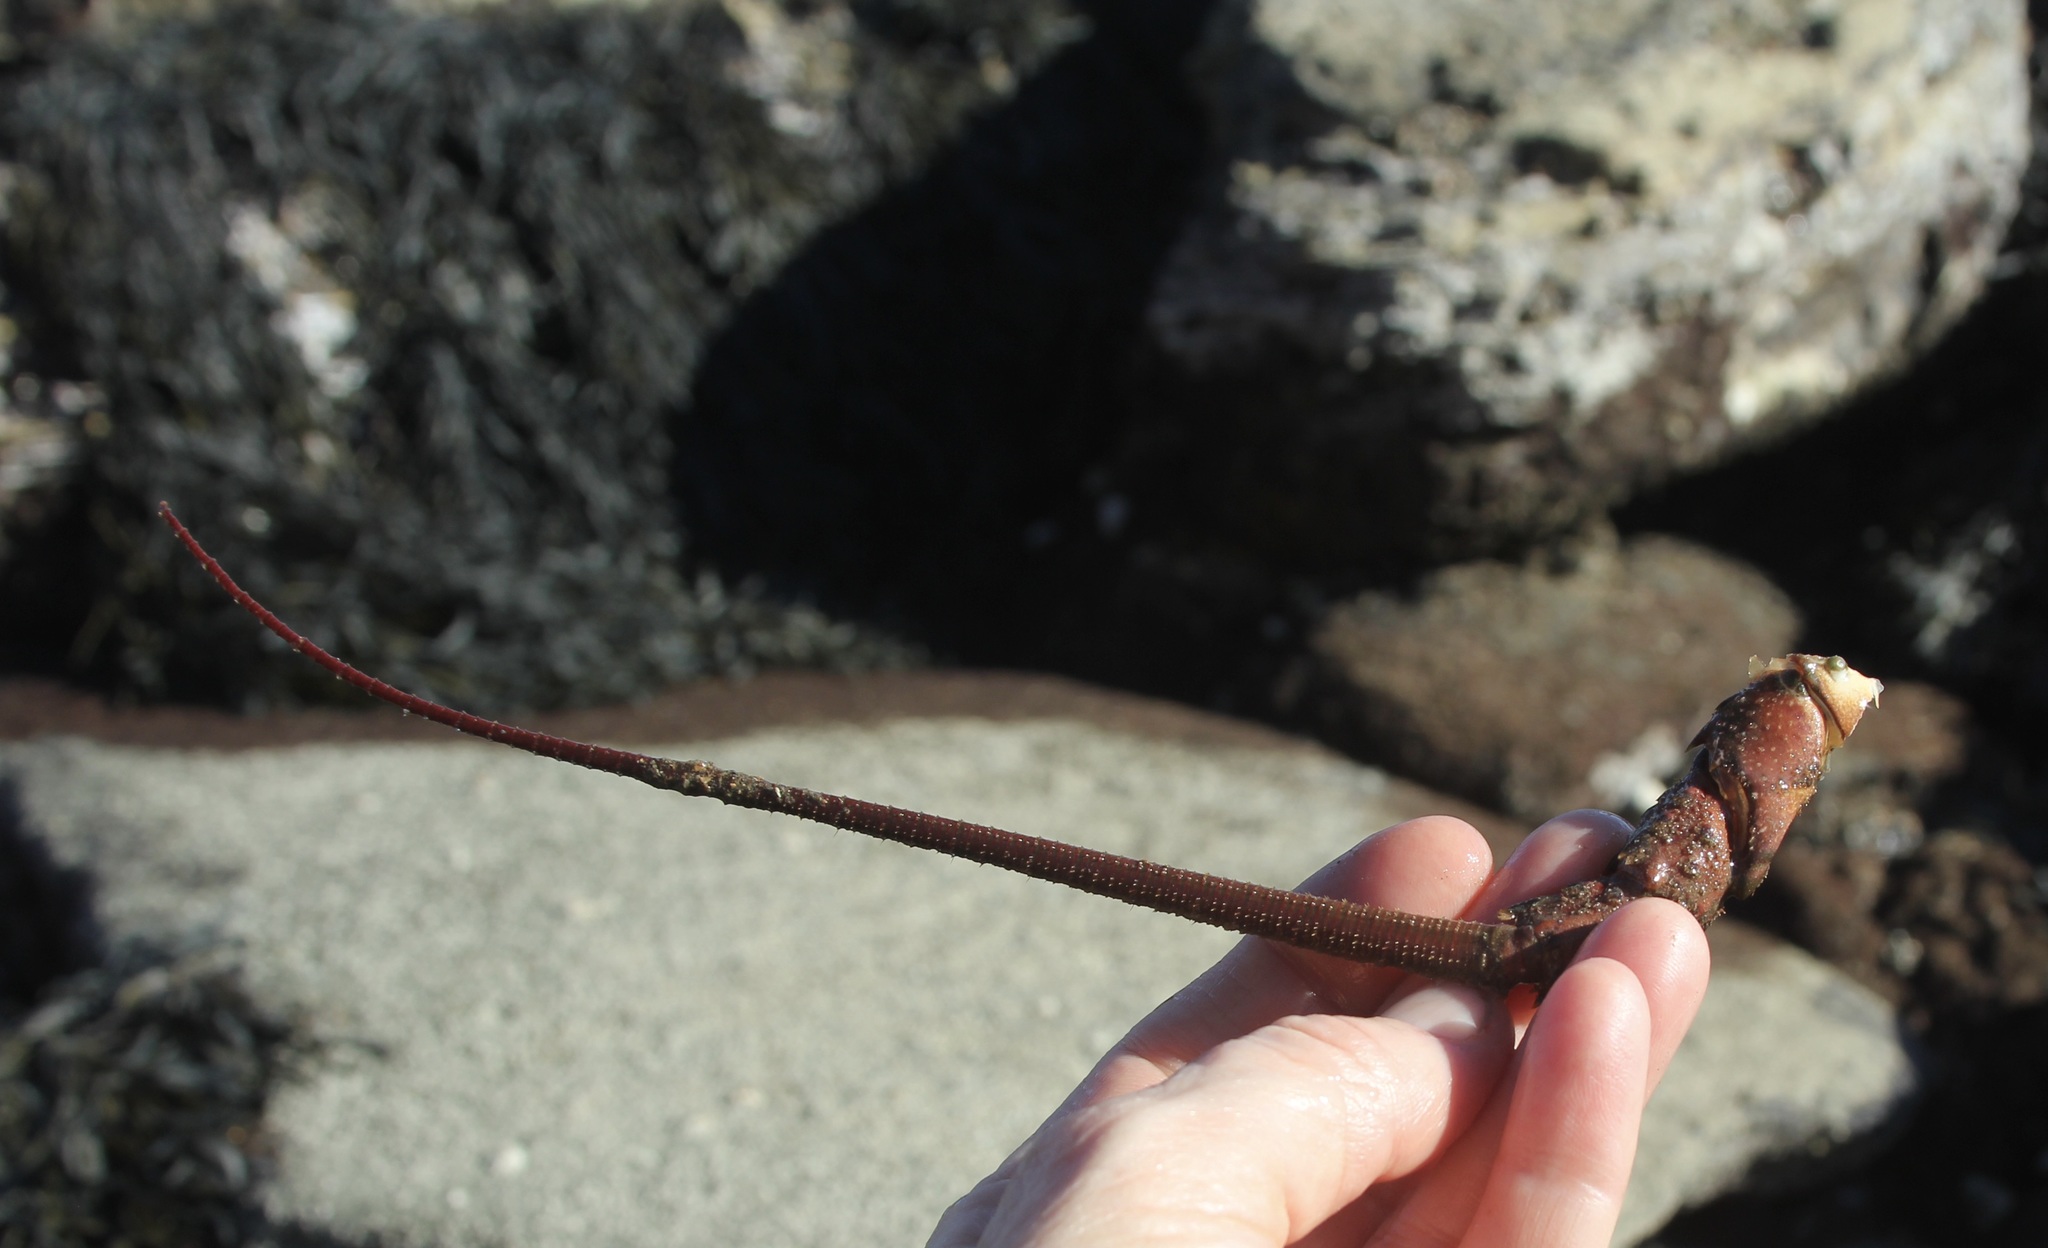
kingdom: Animalia
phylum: Arthropoda
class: Malacostraca
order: Decapoda
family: Palinuridae
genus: Panulirus
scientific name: Panulirus interruptus
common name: California spiny lobster
